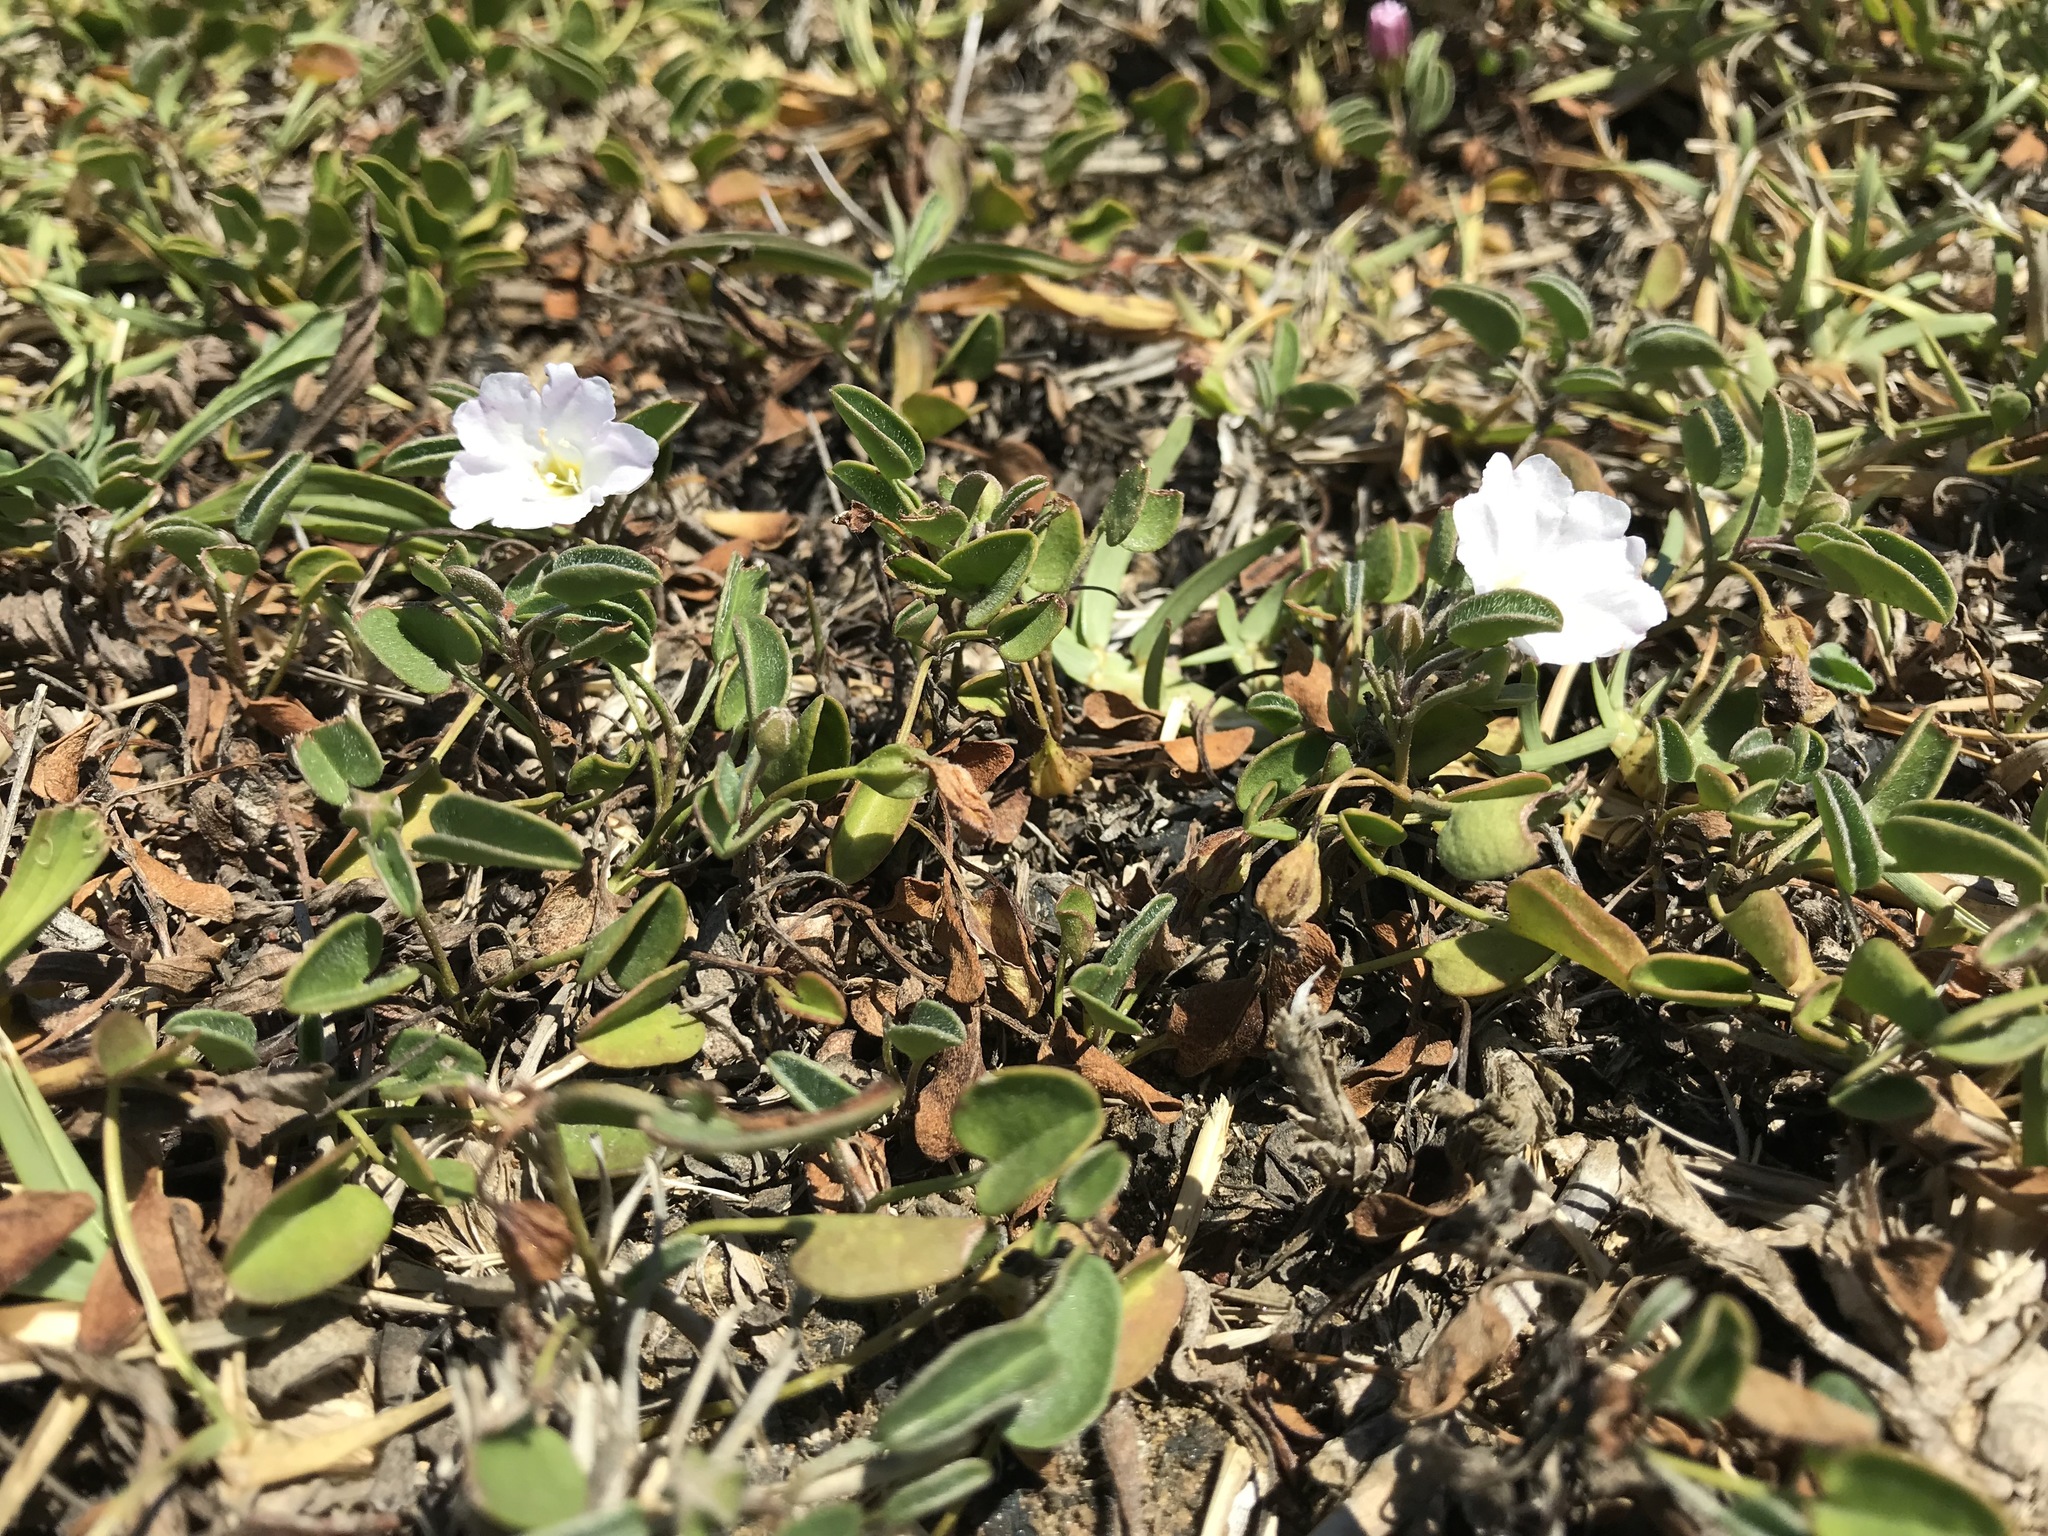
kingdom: Plantae
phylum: Tracheophyta
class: Magnoliopsida
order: Solanales
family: Convolvulaceae
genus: Falkia
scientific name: Falkia repens
